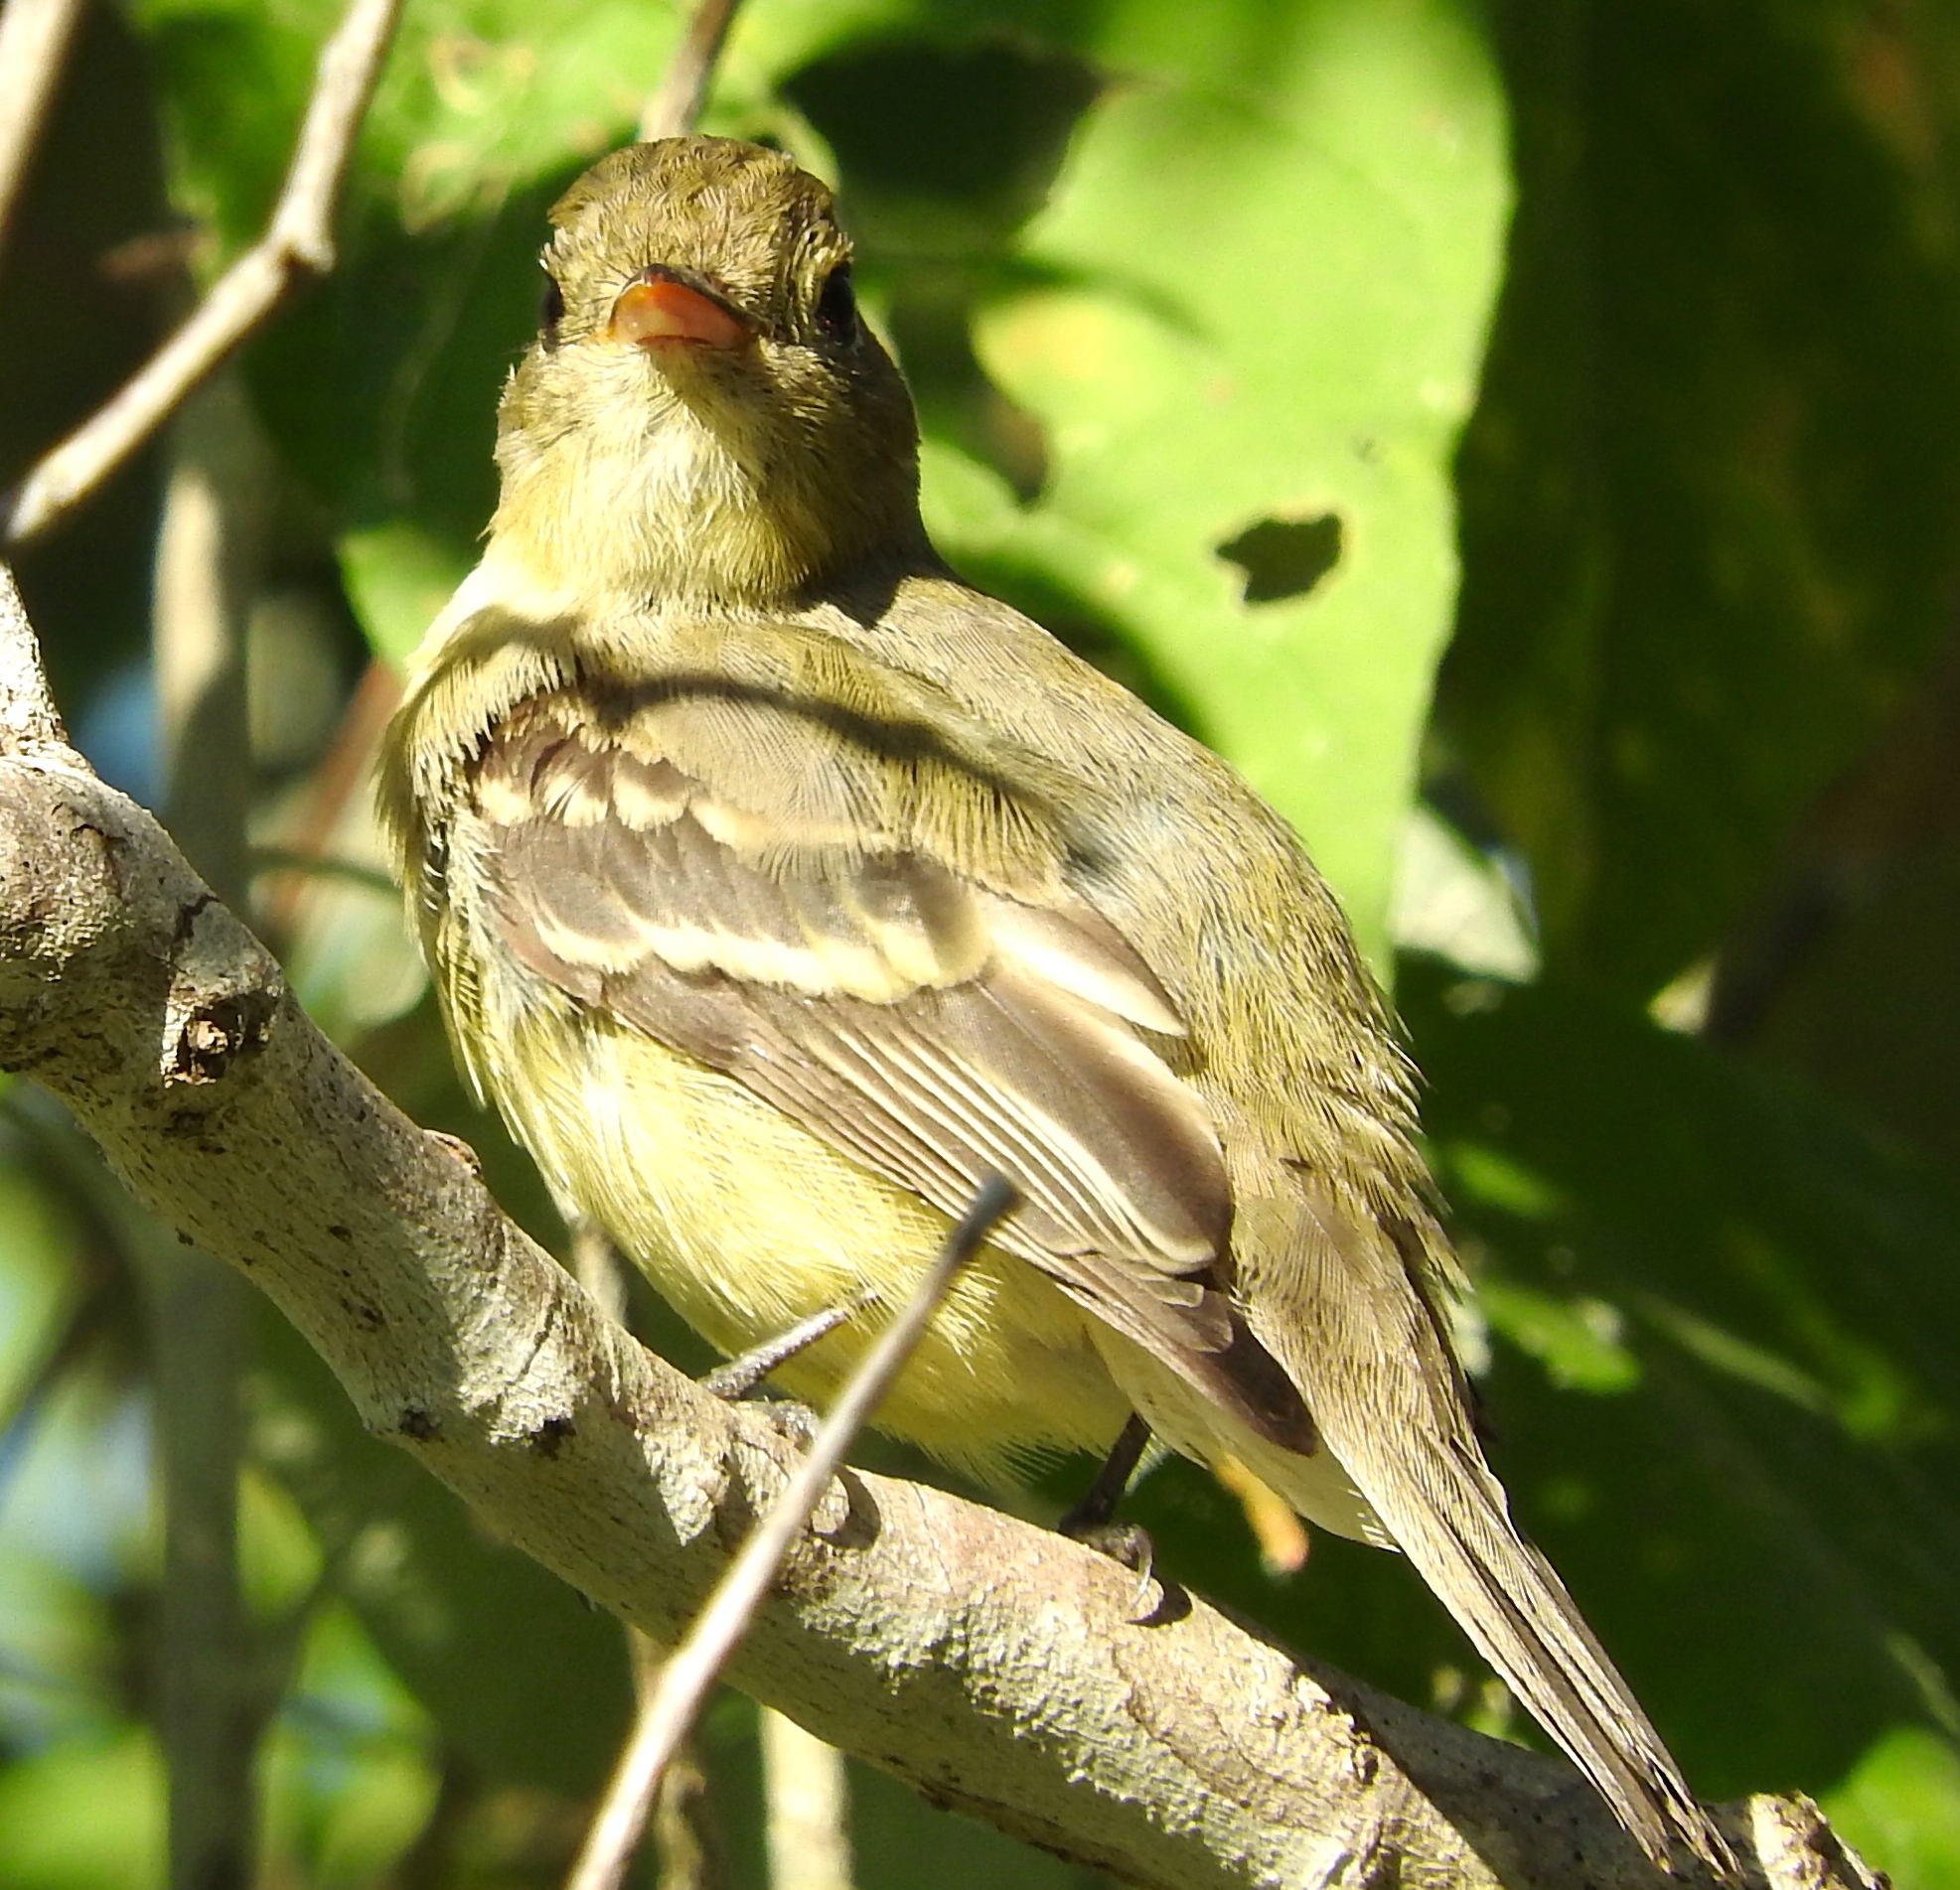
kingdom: Animalia
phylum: Chordata
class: Aves
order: Passeriformes
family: Tyrannidae
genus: Empidonax
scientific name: Empidonax difficilis
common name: Pacific-slope flycatcher
